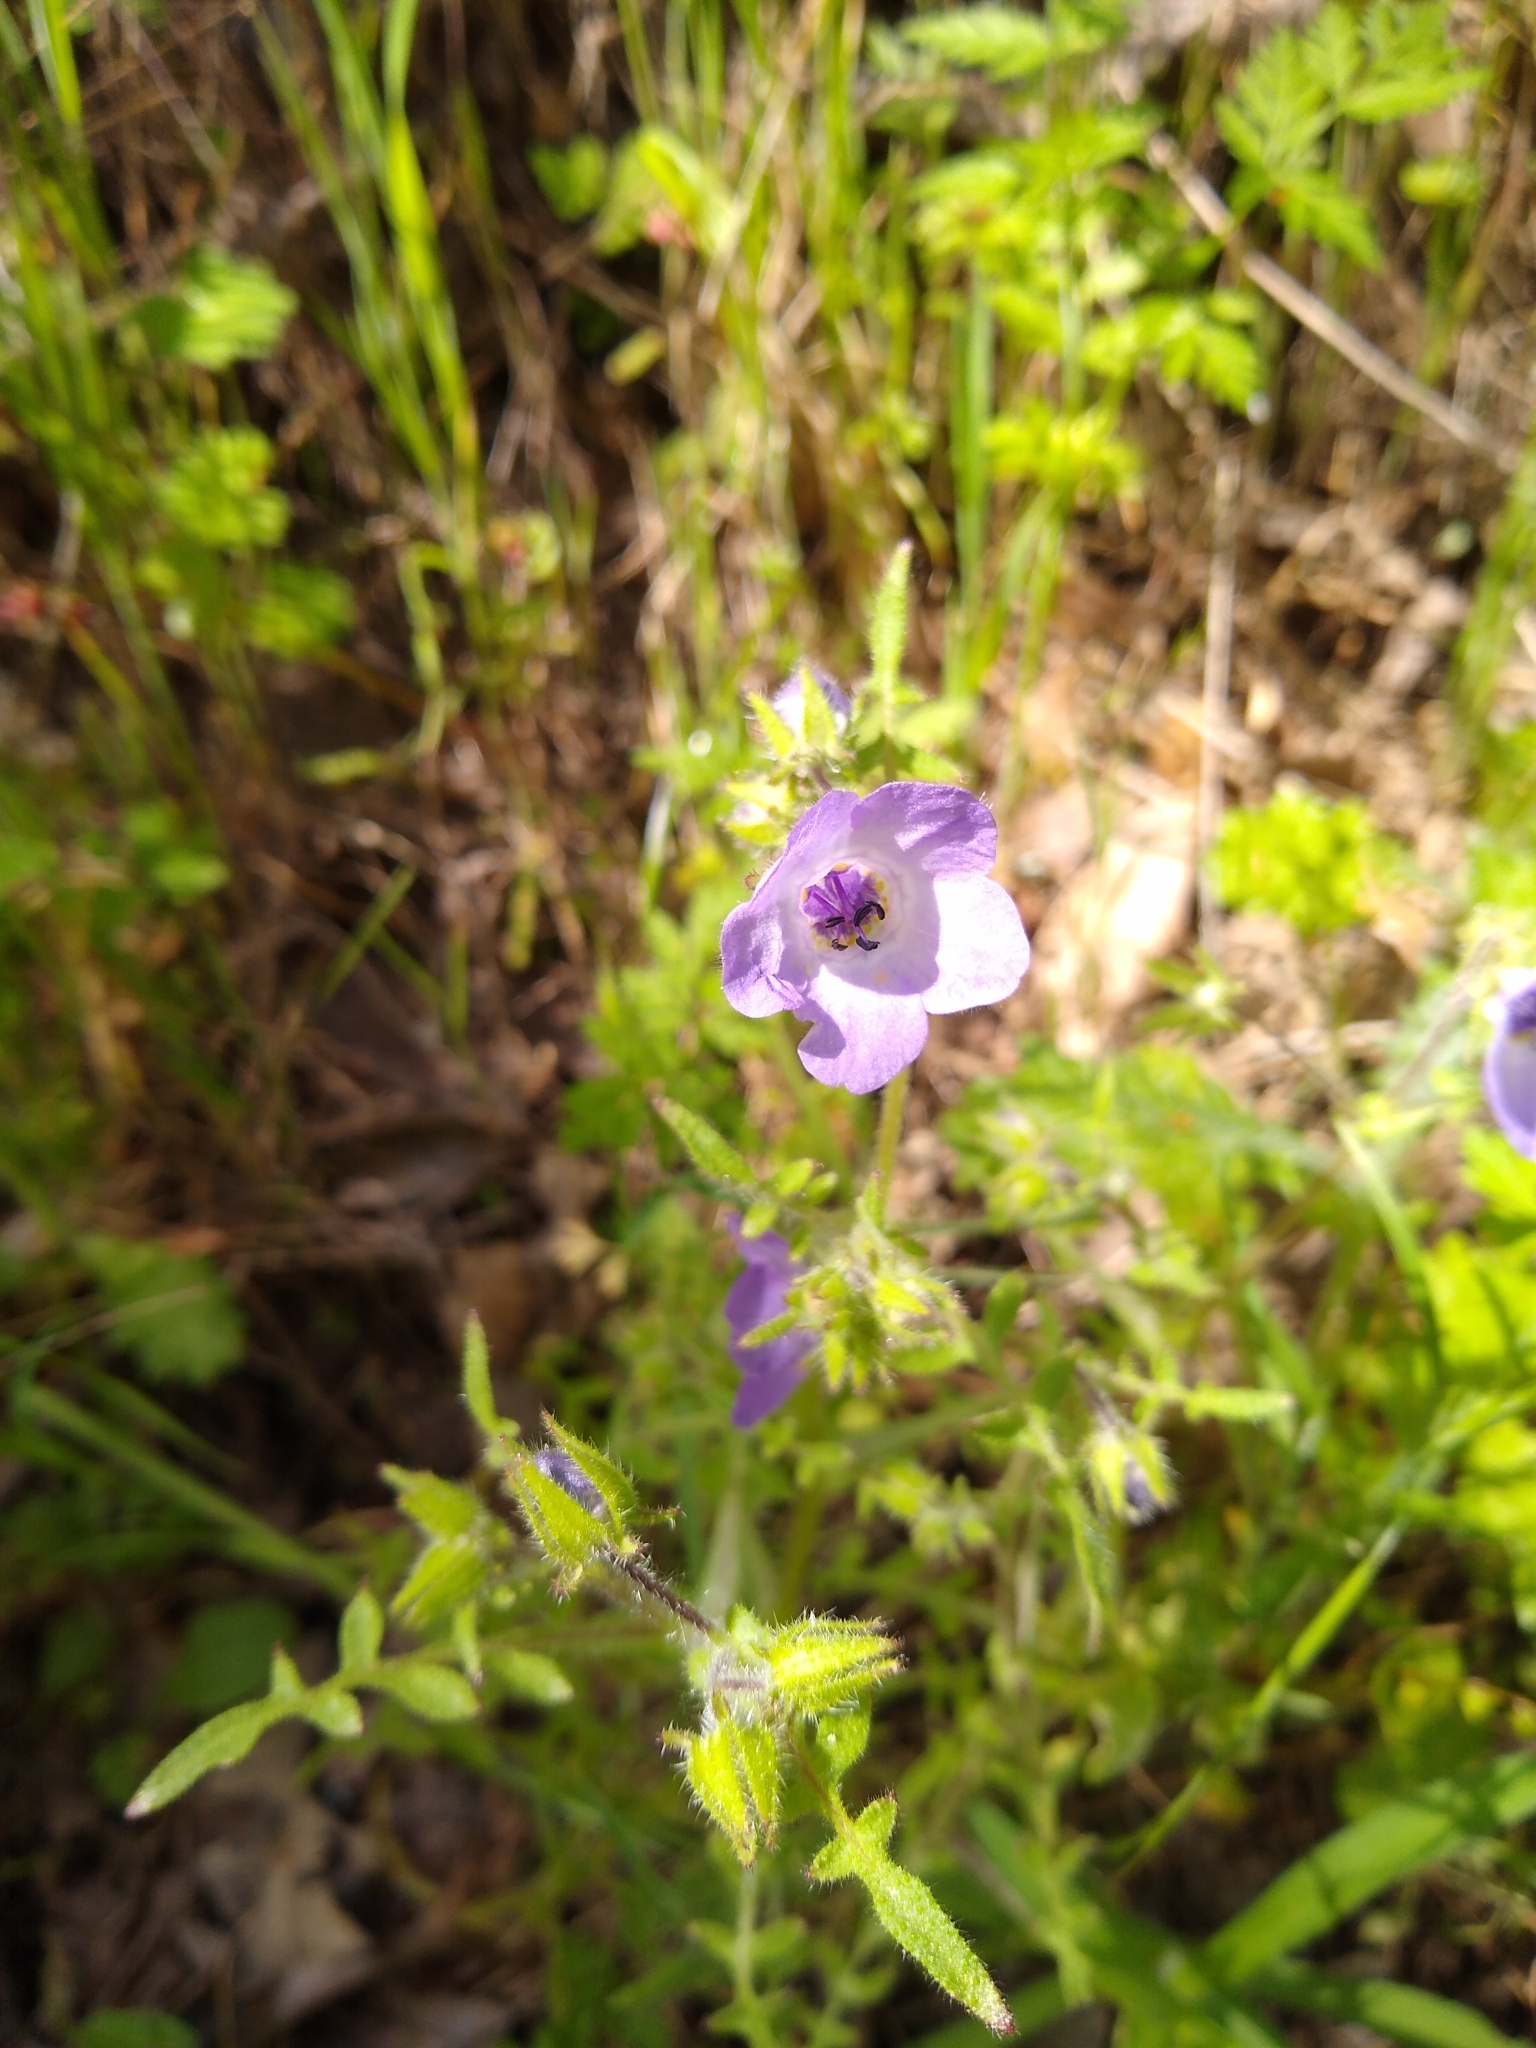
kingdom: Plantae
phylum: Tracheophyta
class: Magnoliopsida
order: Boraginales
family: Hydrophyllaceae
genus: Pholistoma
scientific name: Pholistoma auritum
